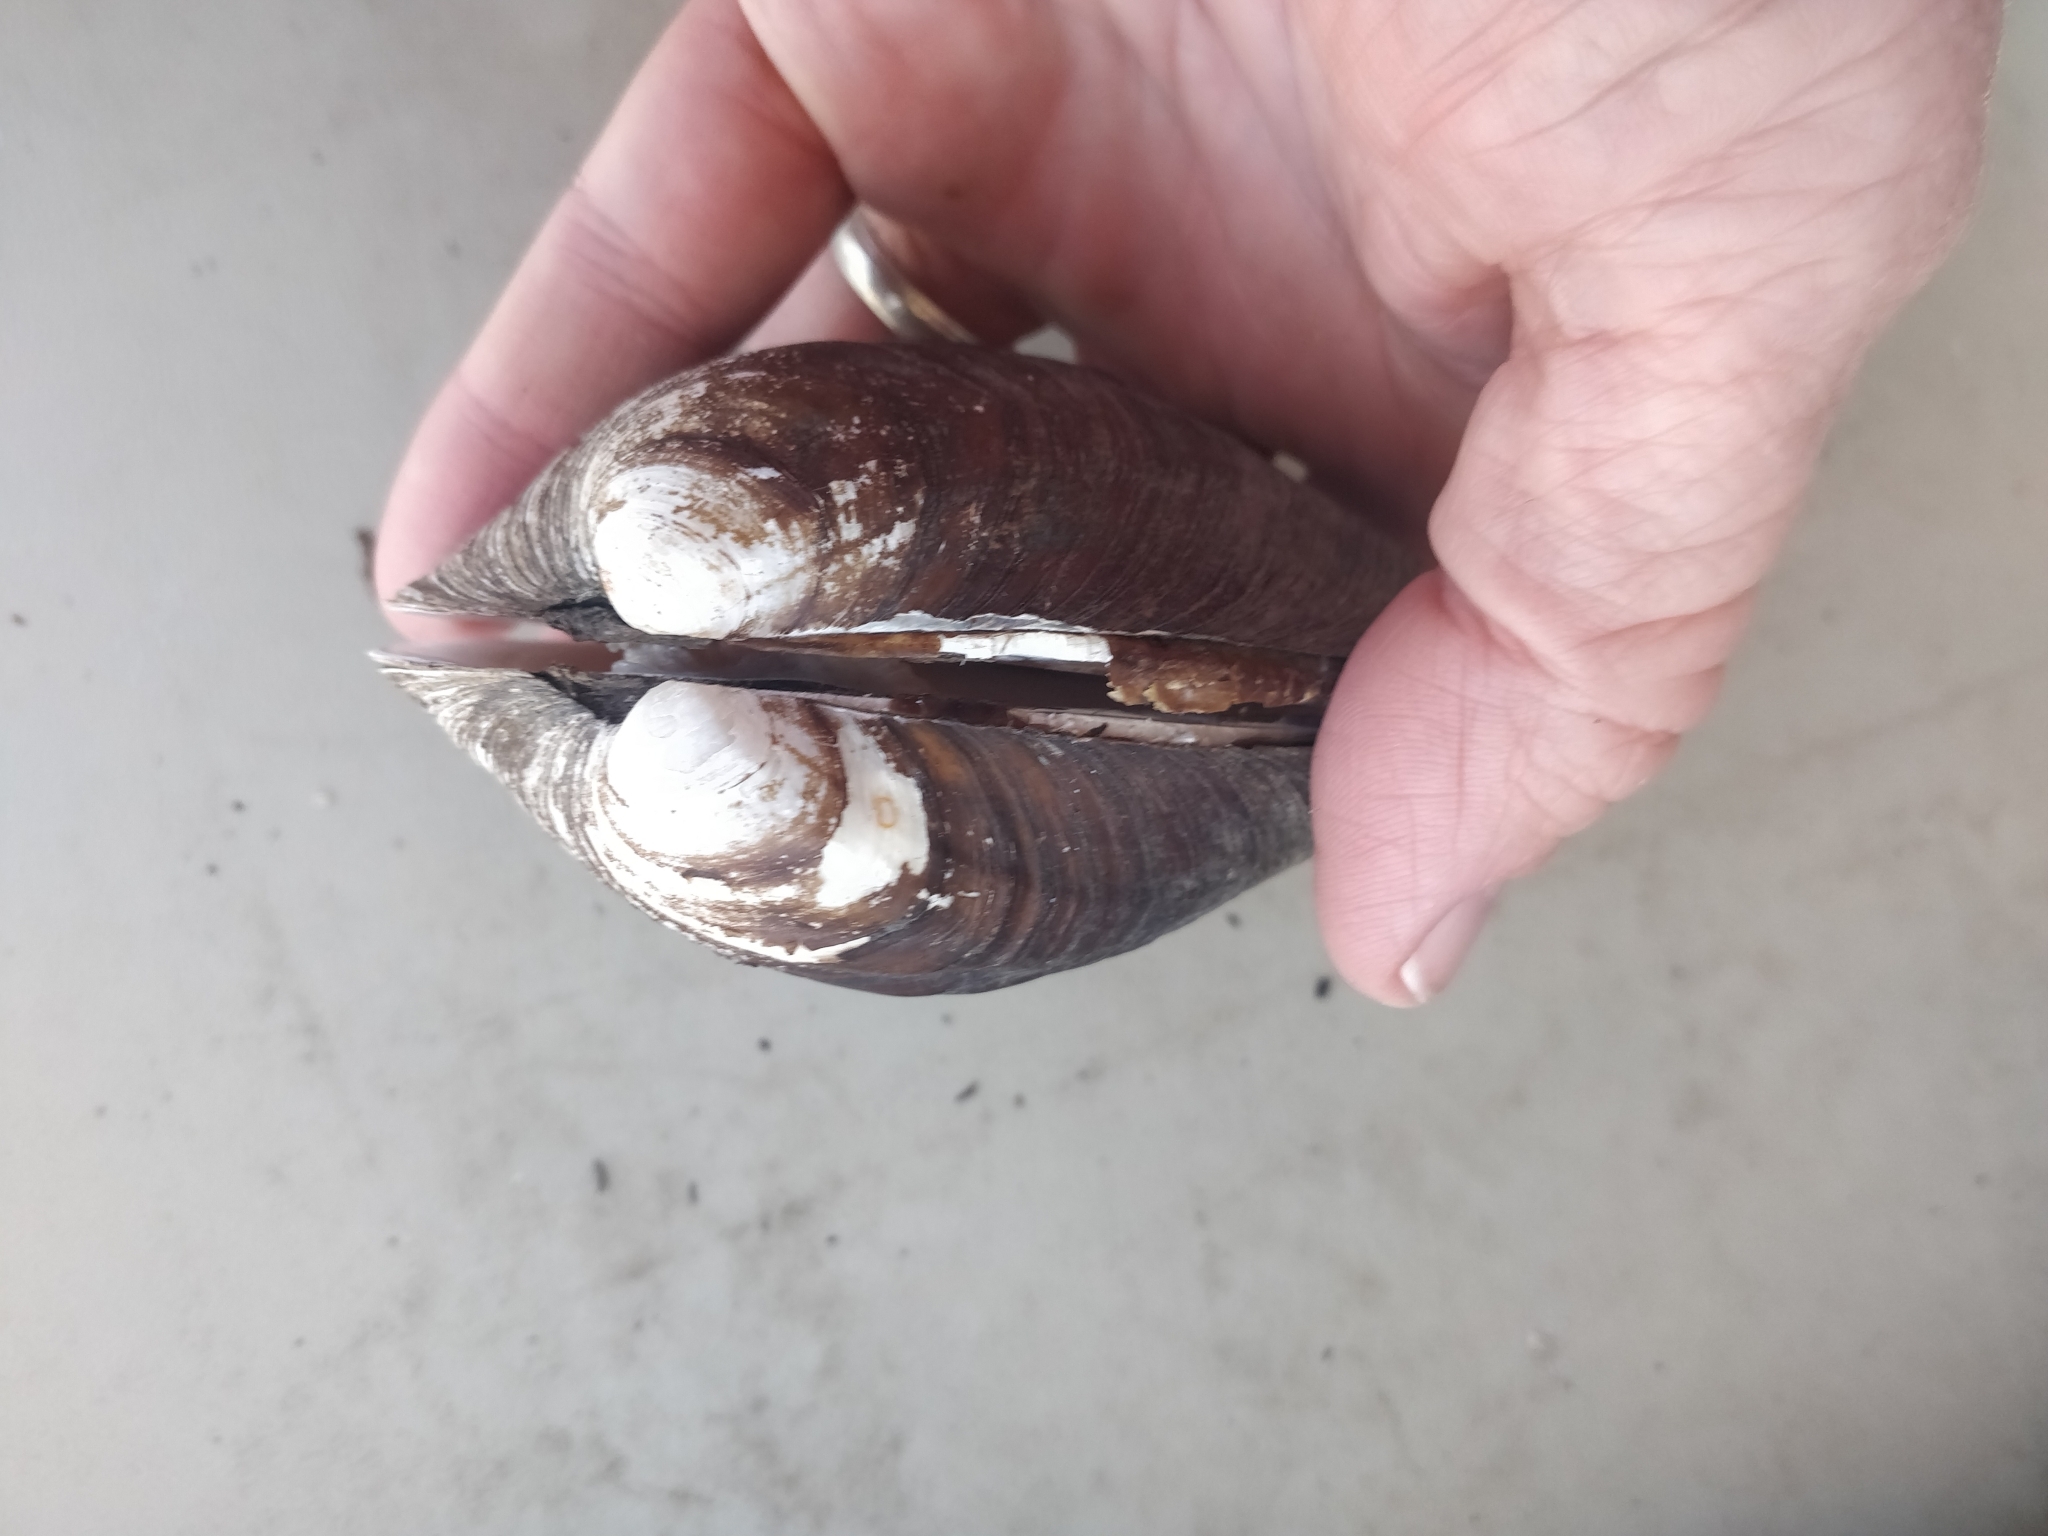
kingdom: Animalia
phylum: Mollusca
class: Bivalvia
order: Unionida
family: Unionidae
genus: Amblema
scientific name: Amblema plicata
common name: Threeridge
